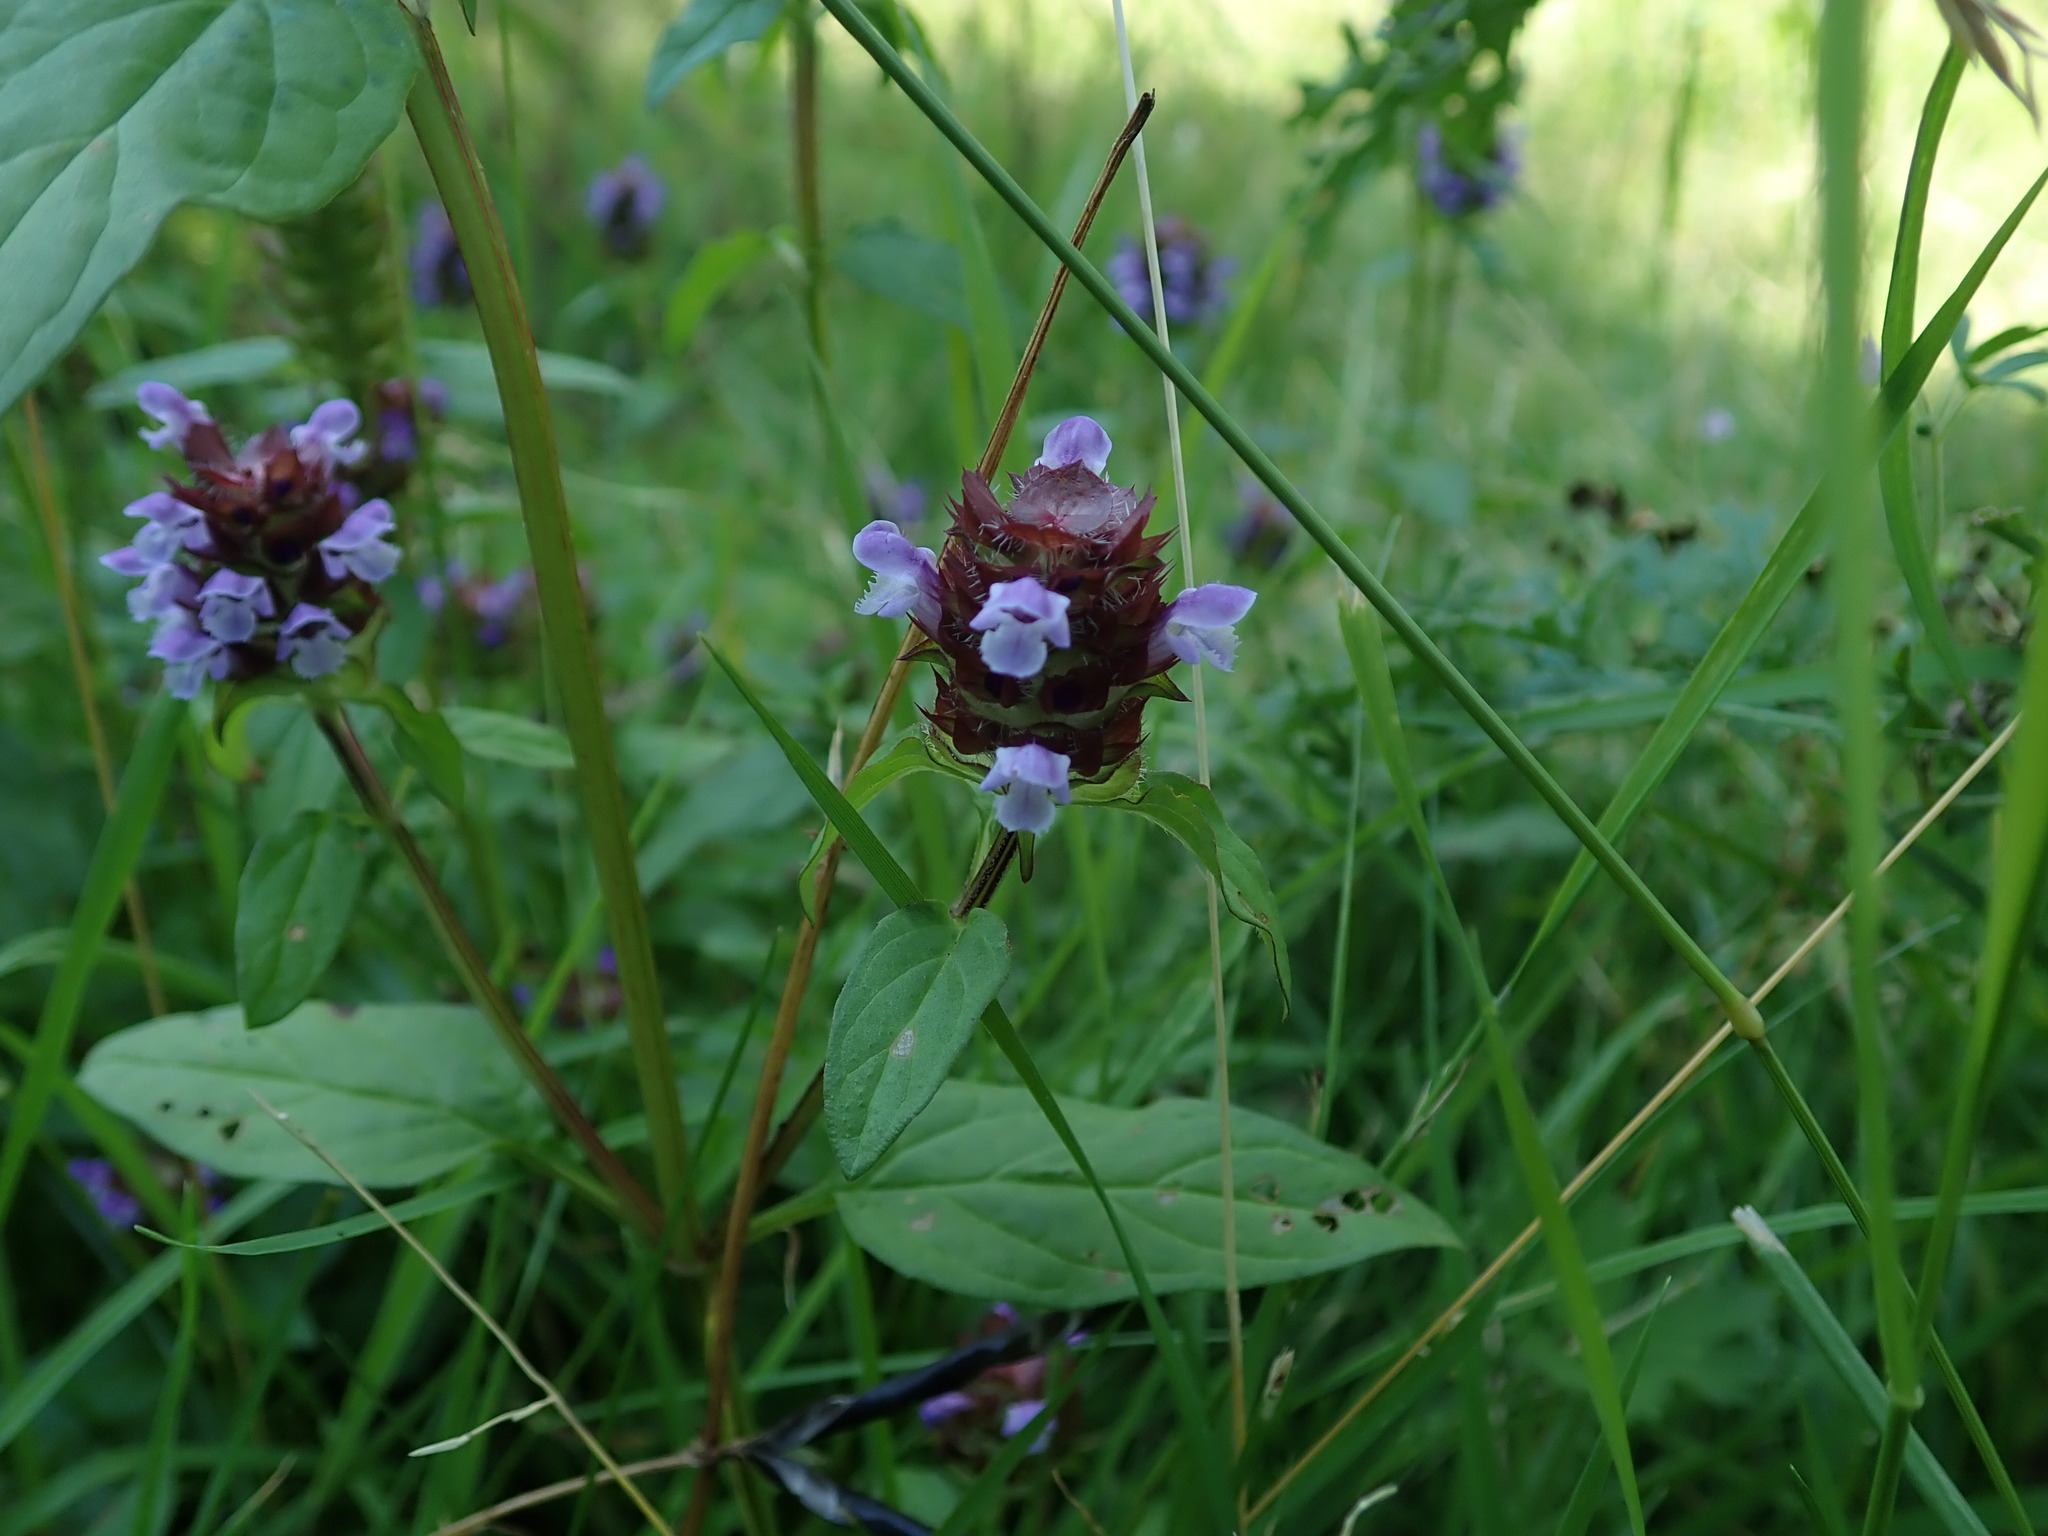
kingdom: Plantae
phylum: Tracheophyta
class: Magnoliopsida
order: Lamiales
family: Lamiaceae
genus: Prunella
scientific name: Prunella vulgaris
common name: Heal-all
